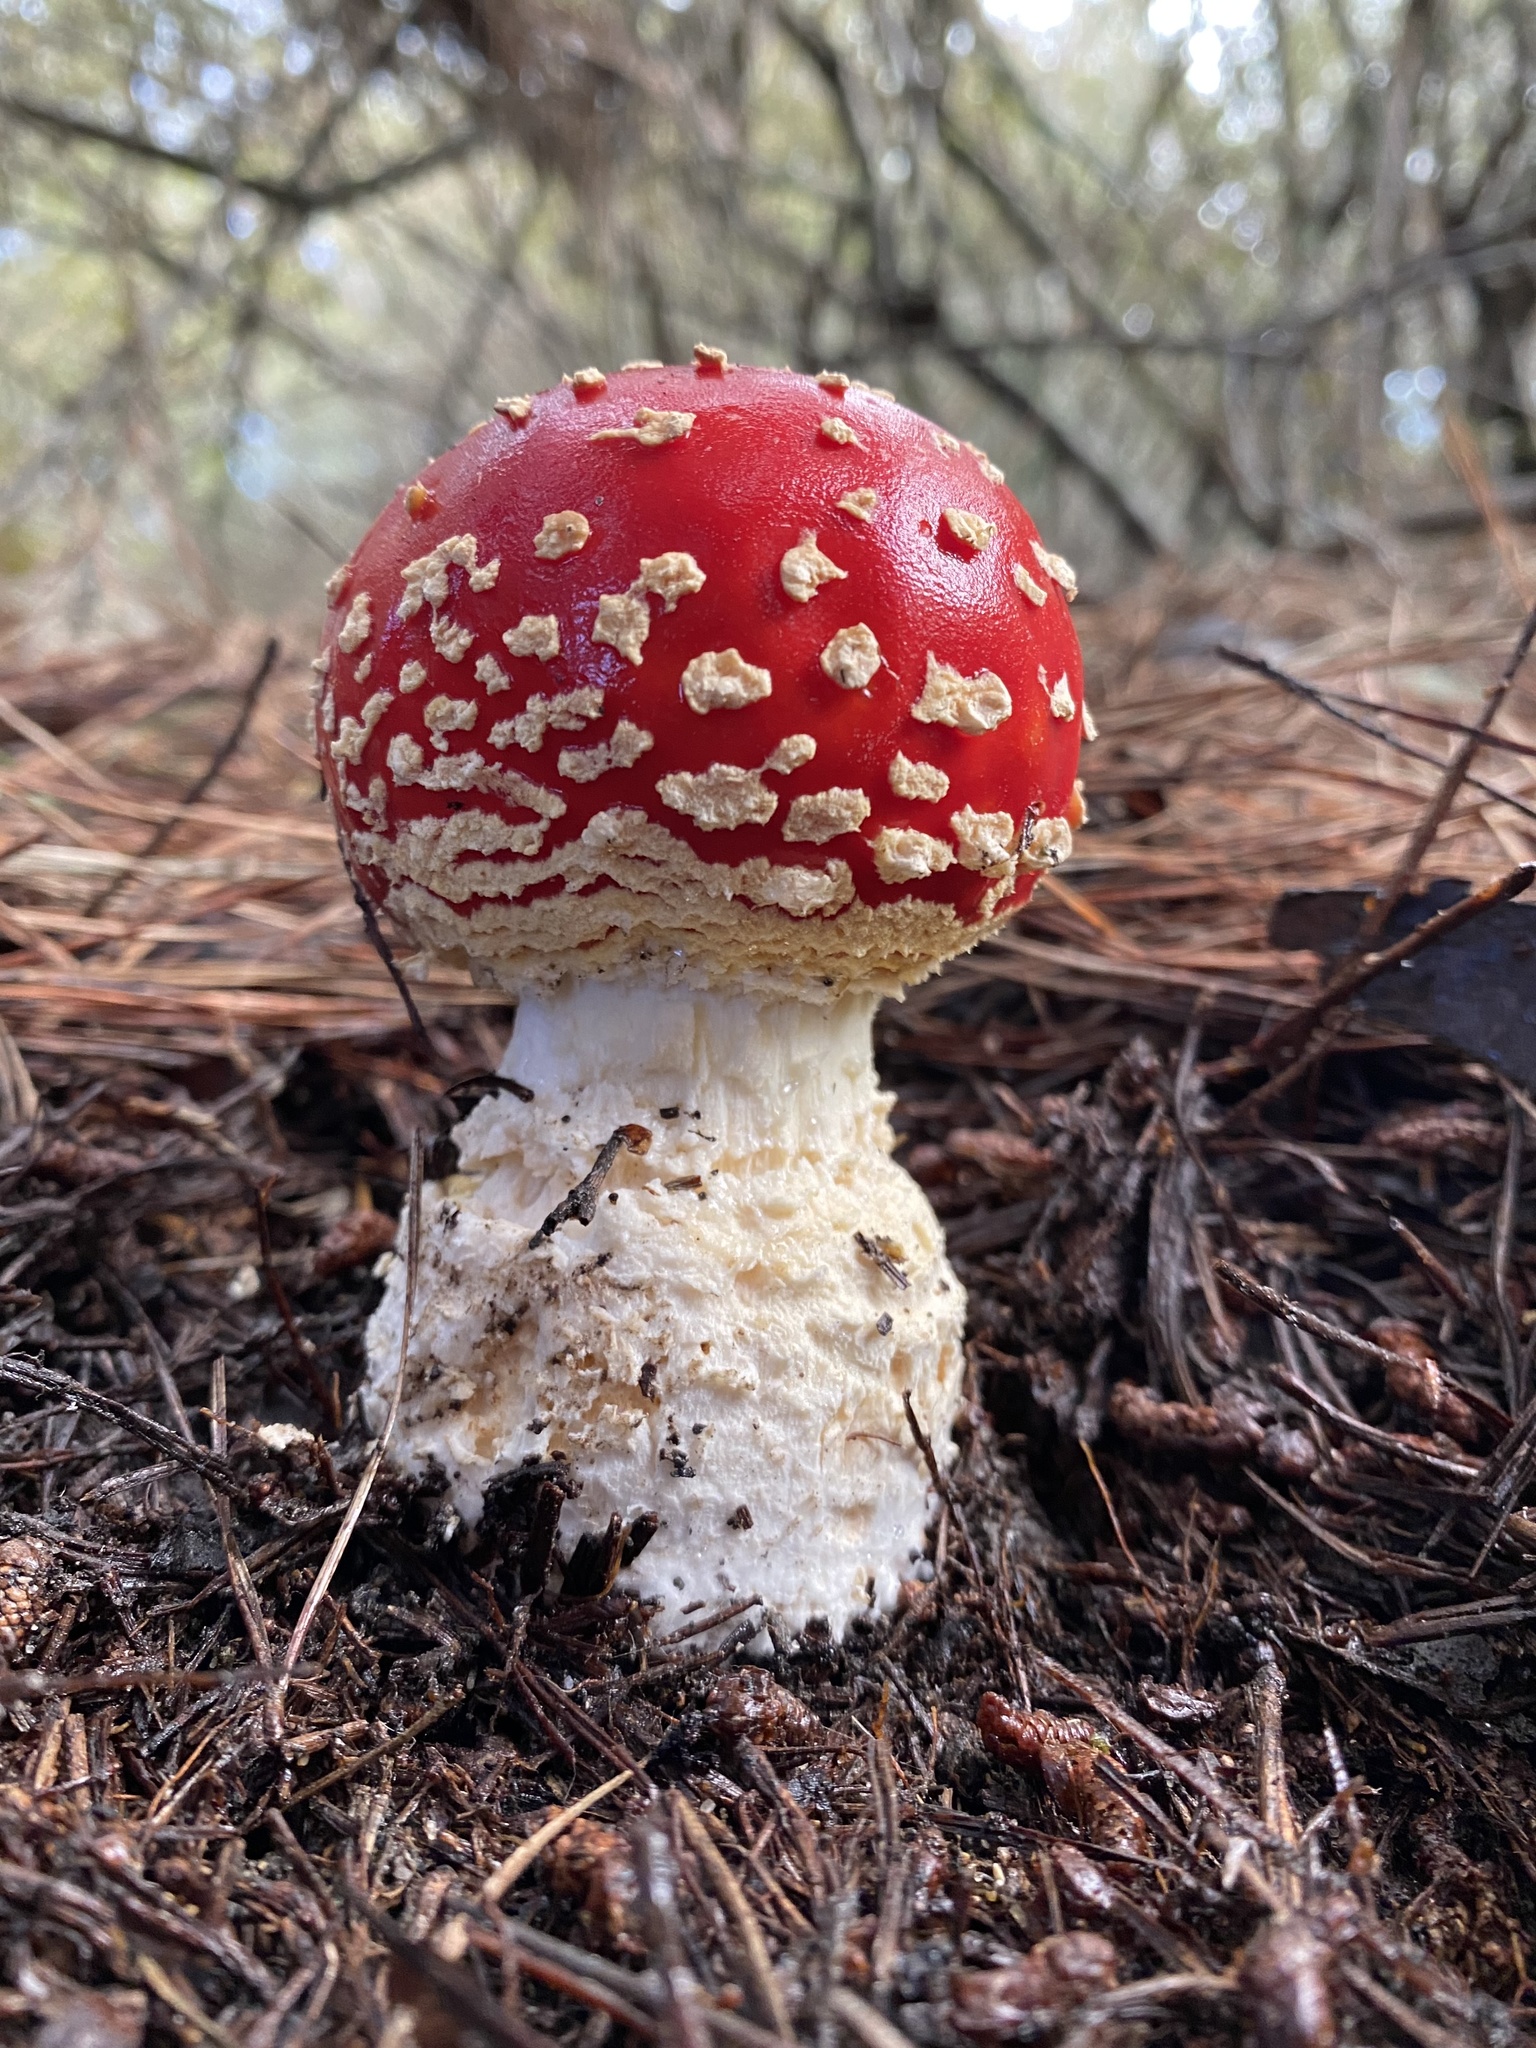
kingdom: Fungi
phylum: Basidiomycota
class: Agaricomycetes
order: Agaricales
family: Amanitaceae
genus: Amanita
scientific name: Amanita muscaria
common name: Fly agaric
